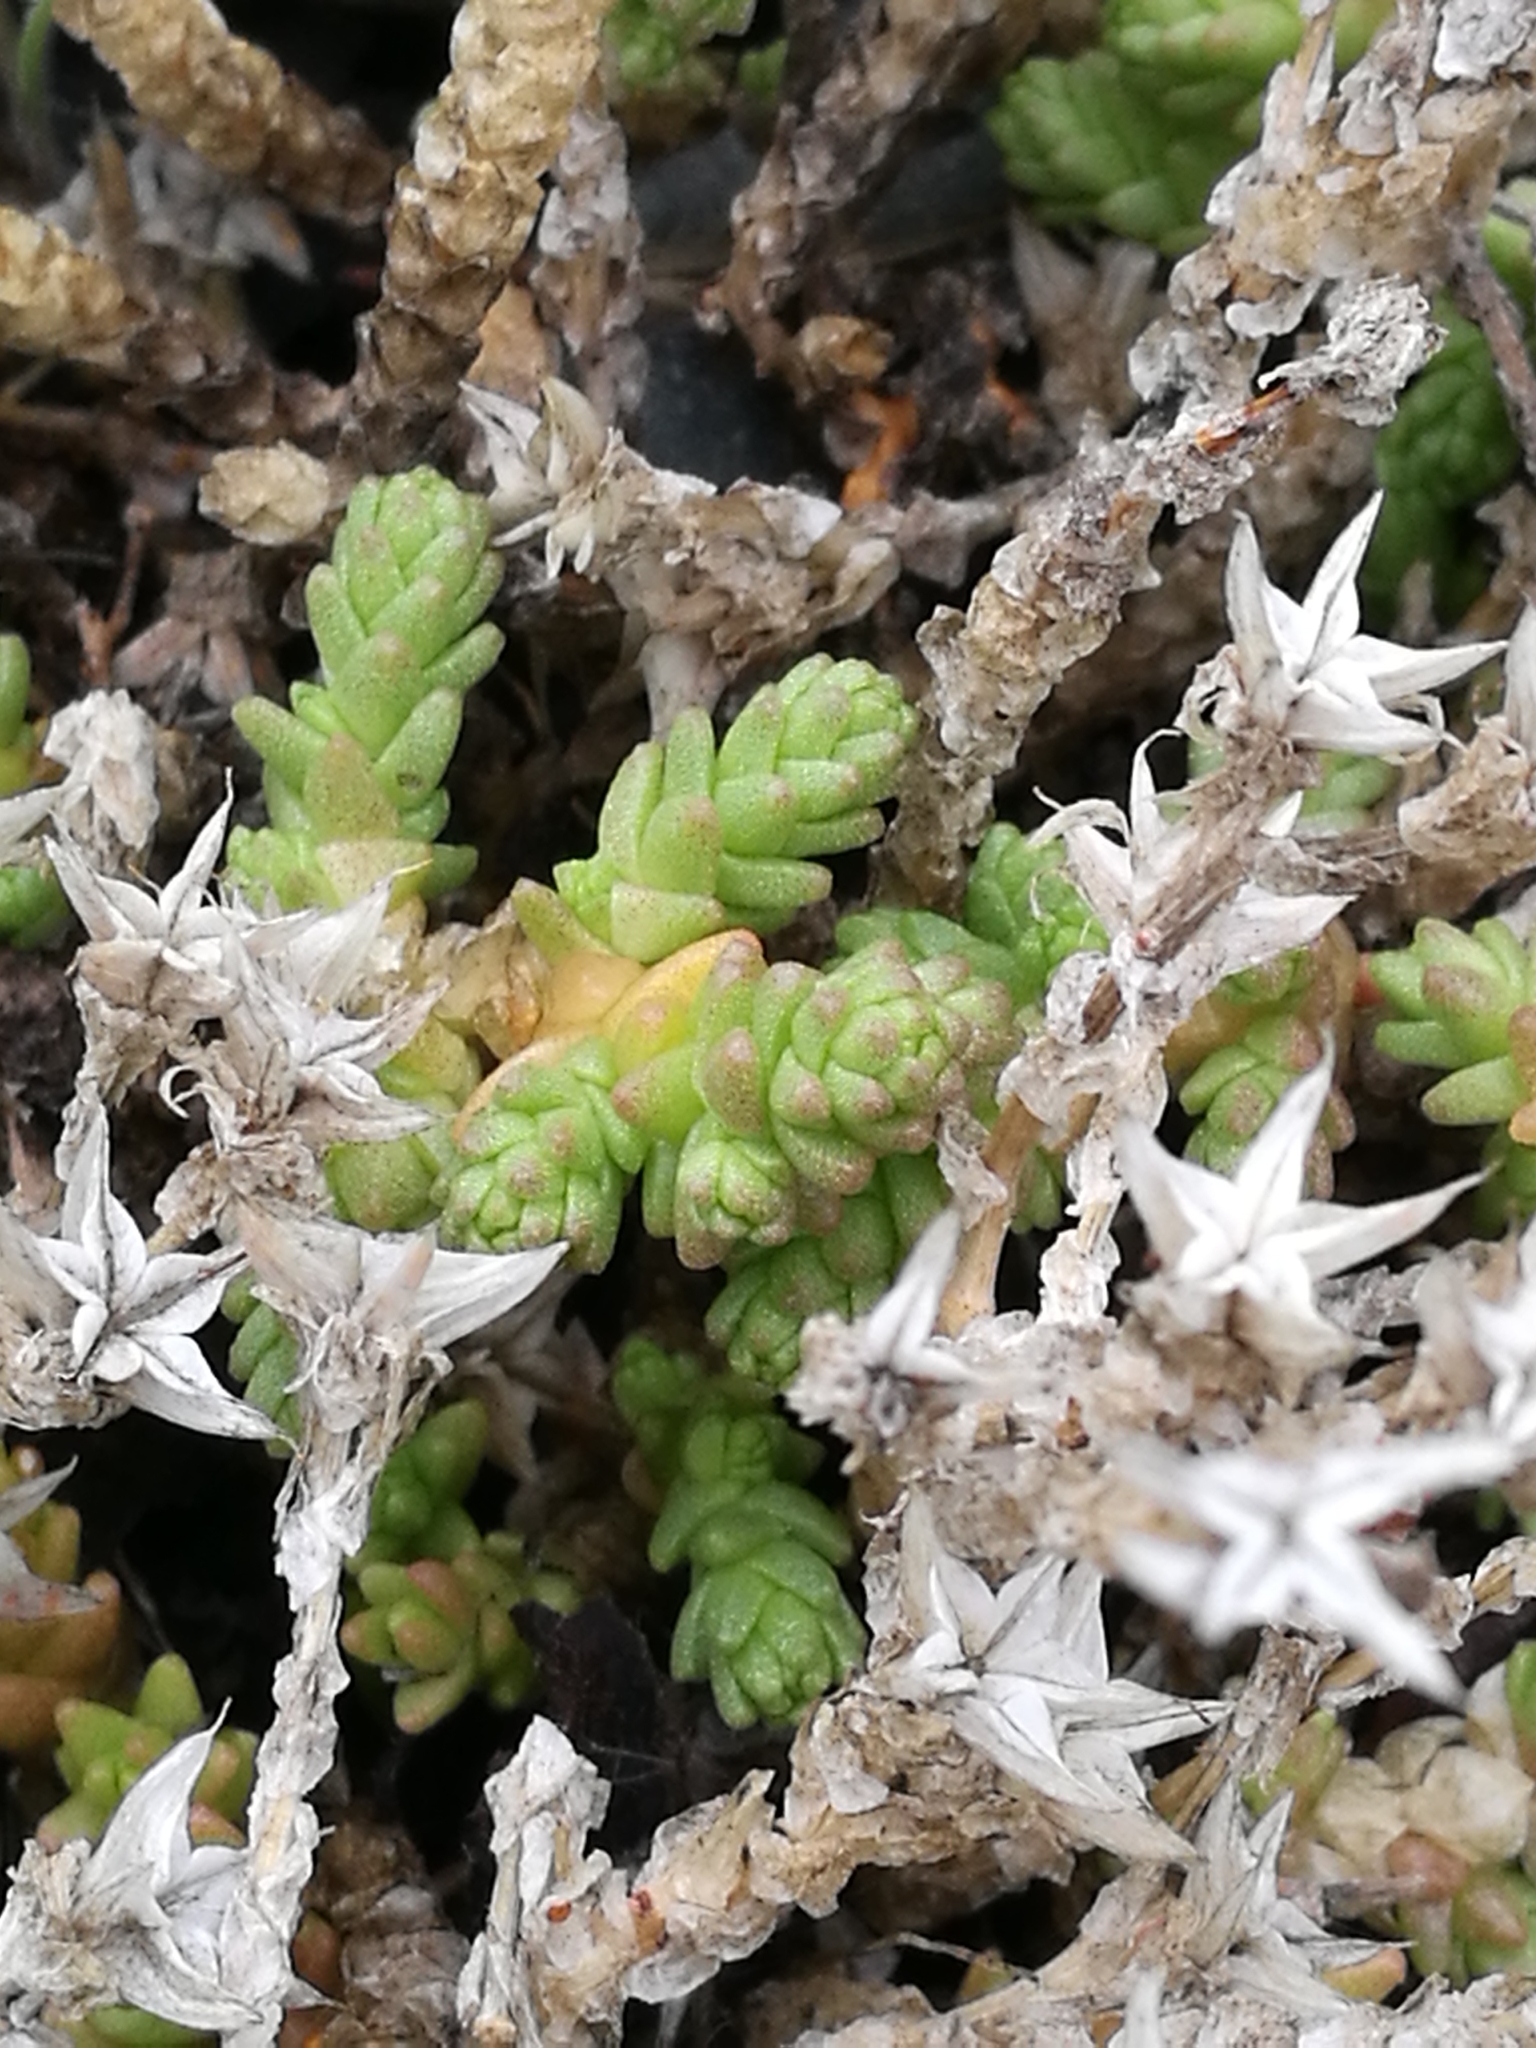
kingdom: Plantae
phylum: Tracheophyta
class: Magnoliopsida
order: Saxifragales
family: Crassulaceae
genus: Sedum
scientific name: Sedum acre
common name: Biting stonecrop
